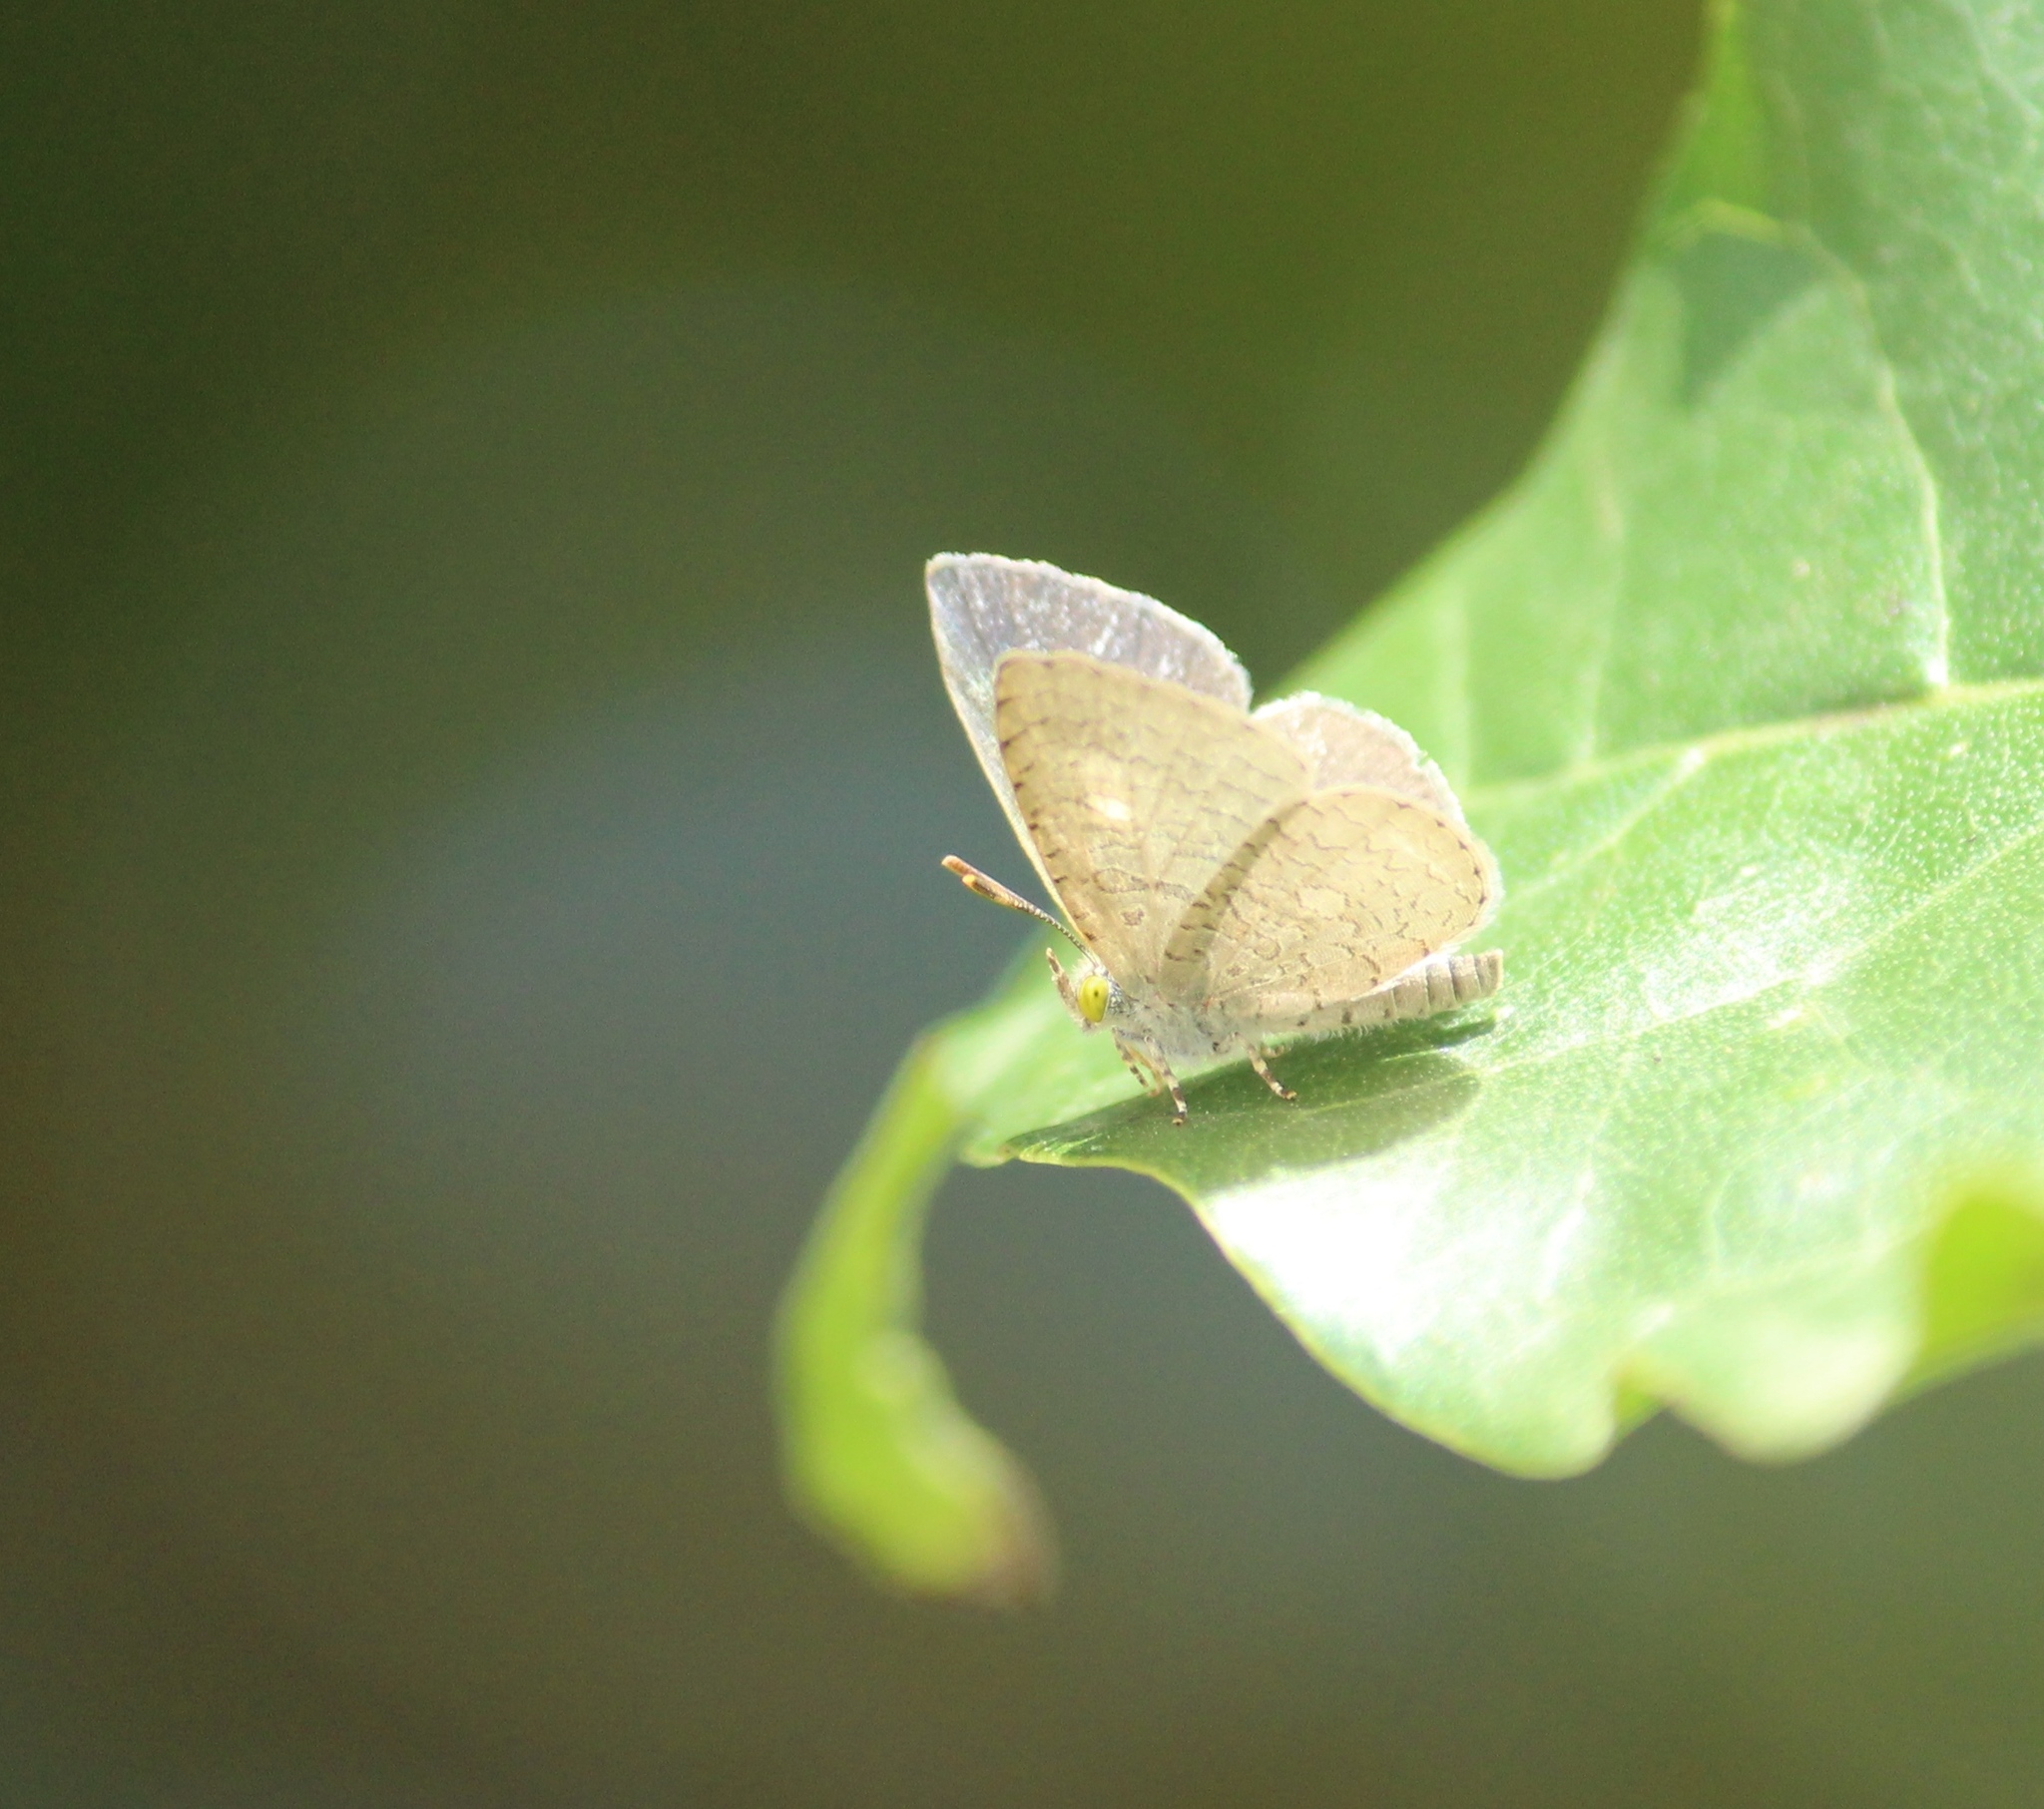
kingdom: Animalia
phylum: Arthropoda
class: Insecta
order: Lepidoptera
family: Lycaenidae
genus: Spalgis
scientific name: Spalgis epius
